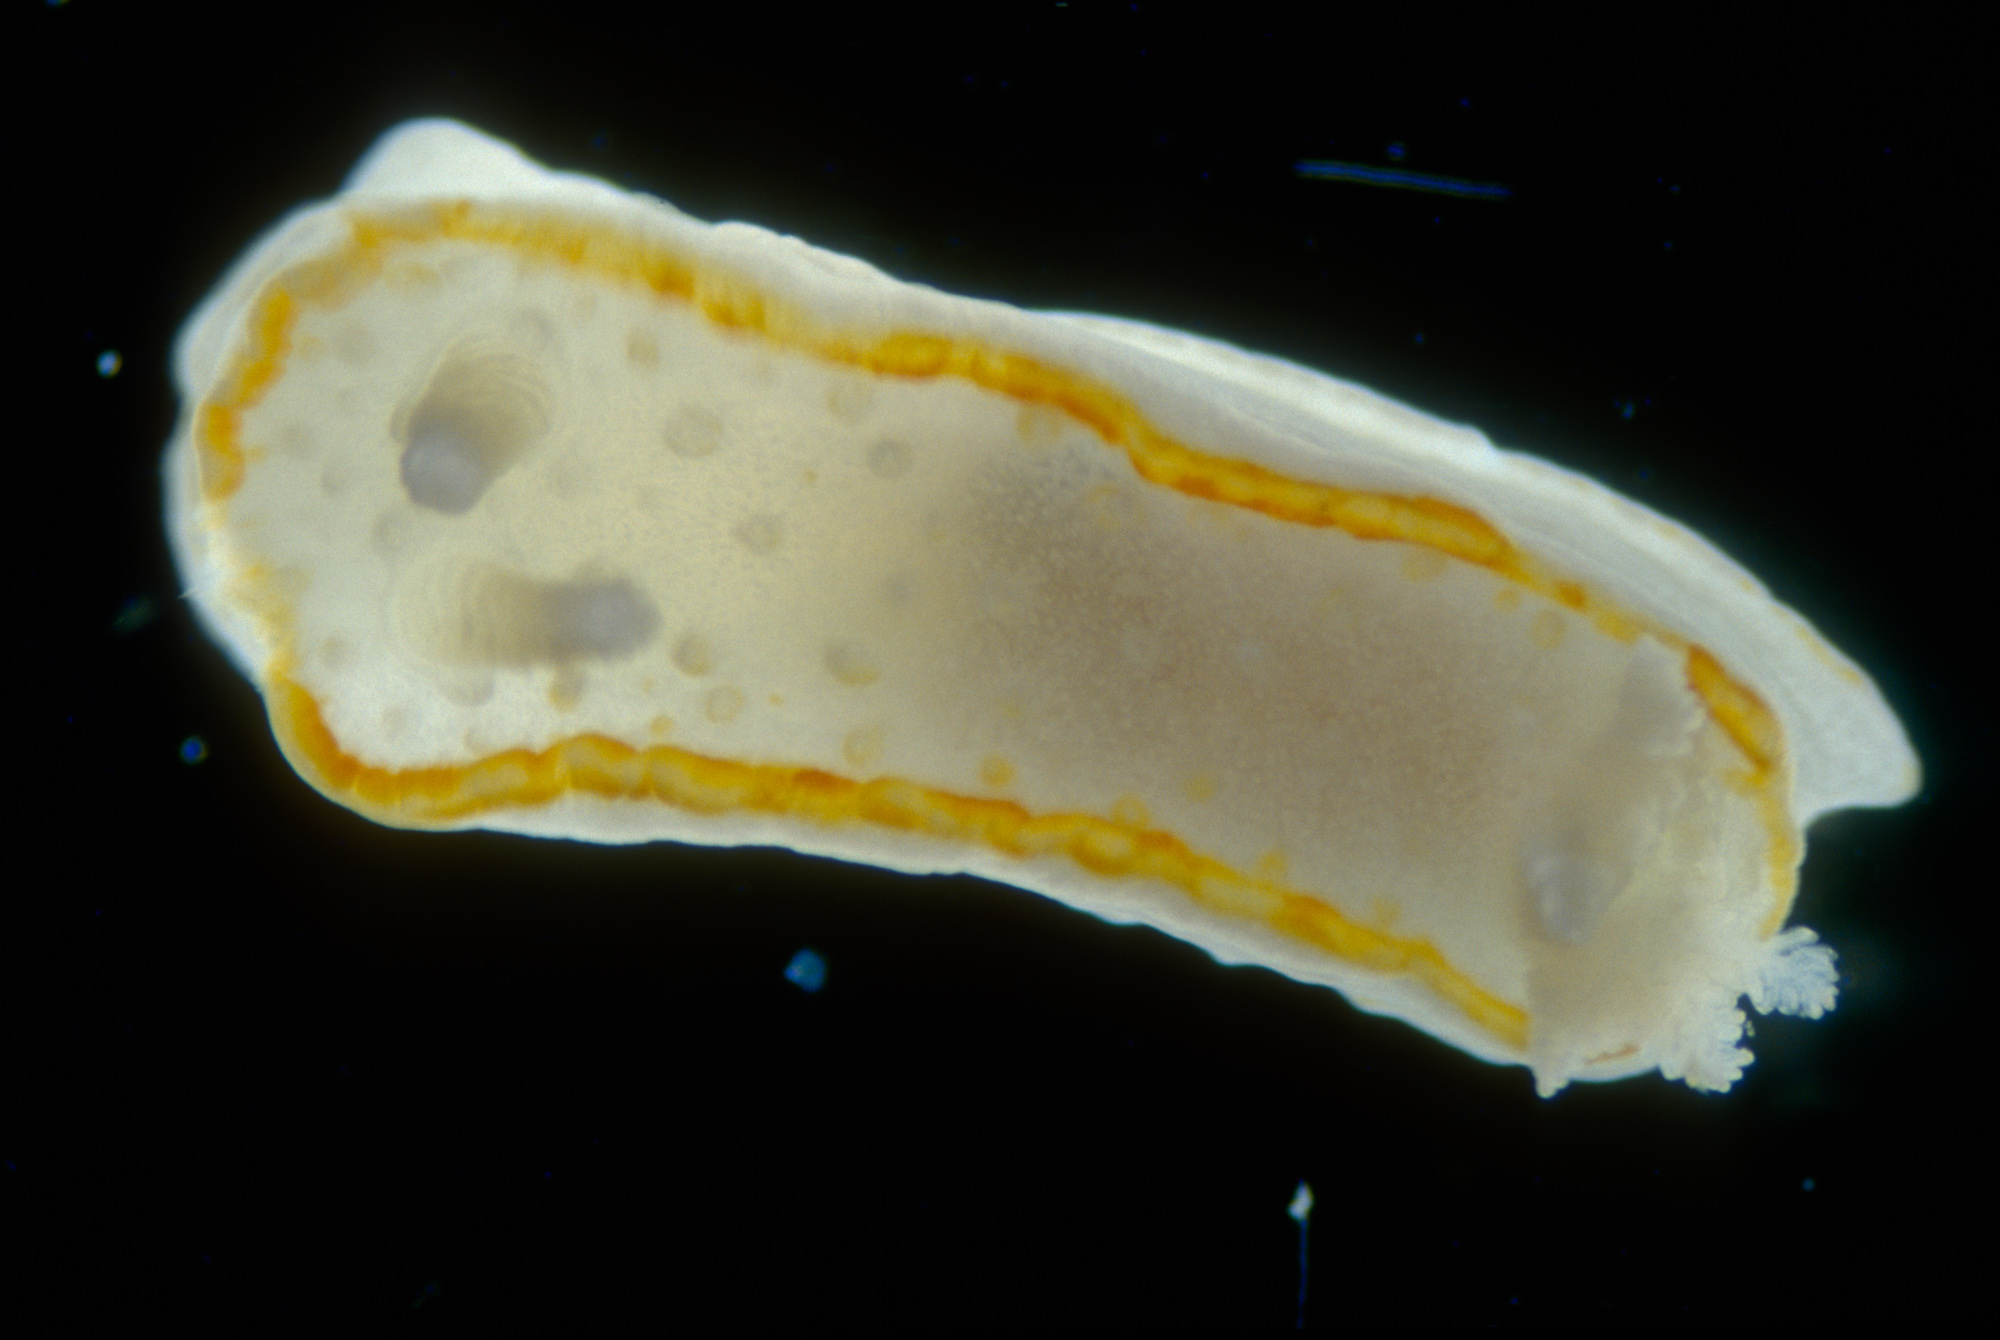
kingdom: Animalia
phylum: Mollusca
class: Gastropoda
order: Nudibranchia
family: Calycidorididae
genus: Diaphorodoris
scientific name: Diaphorodoris alba
